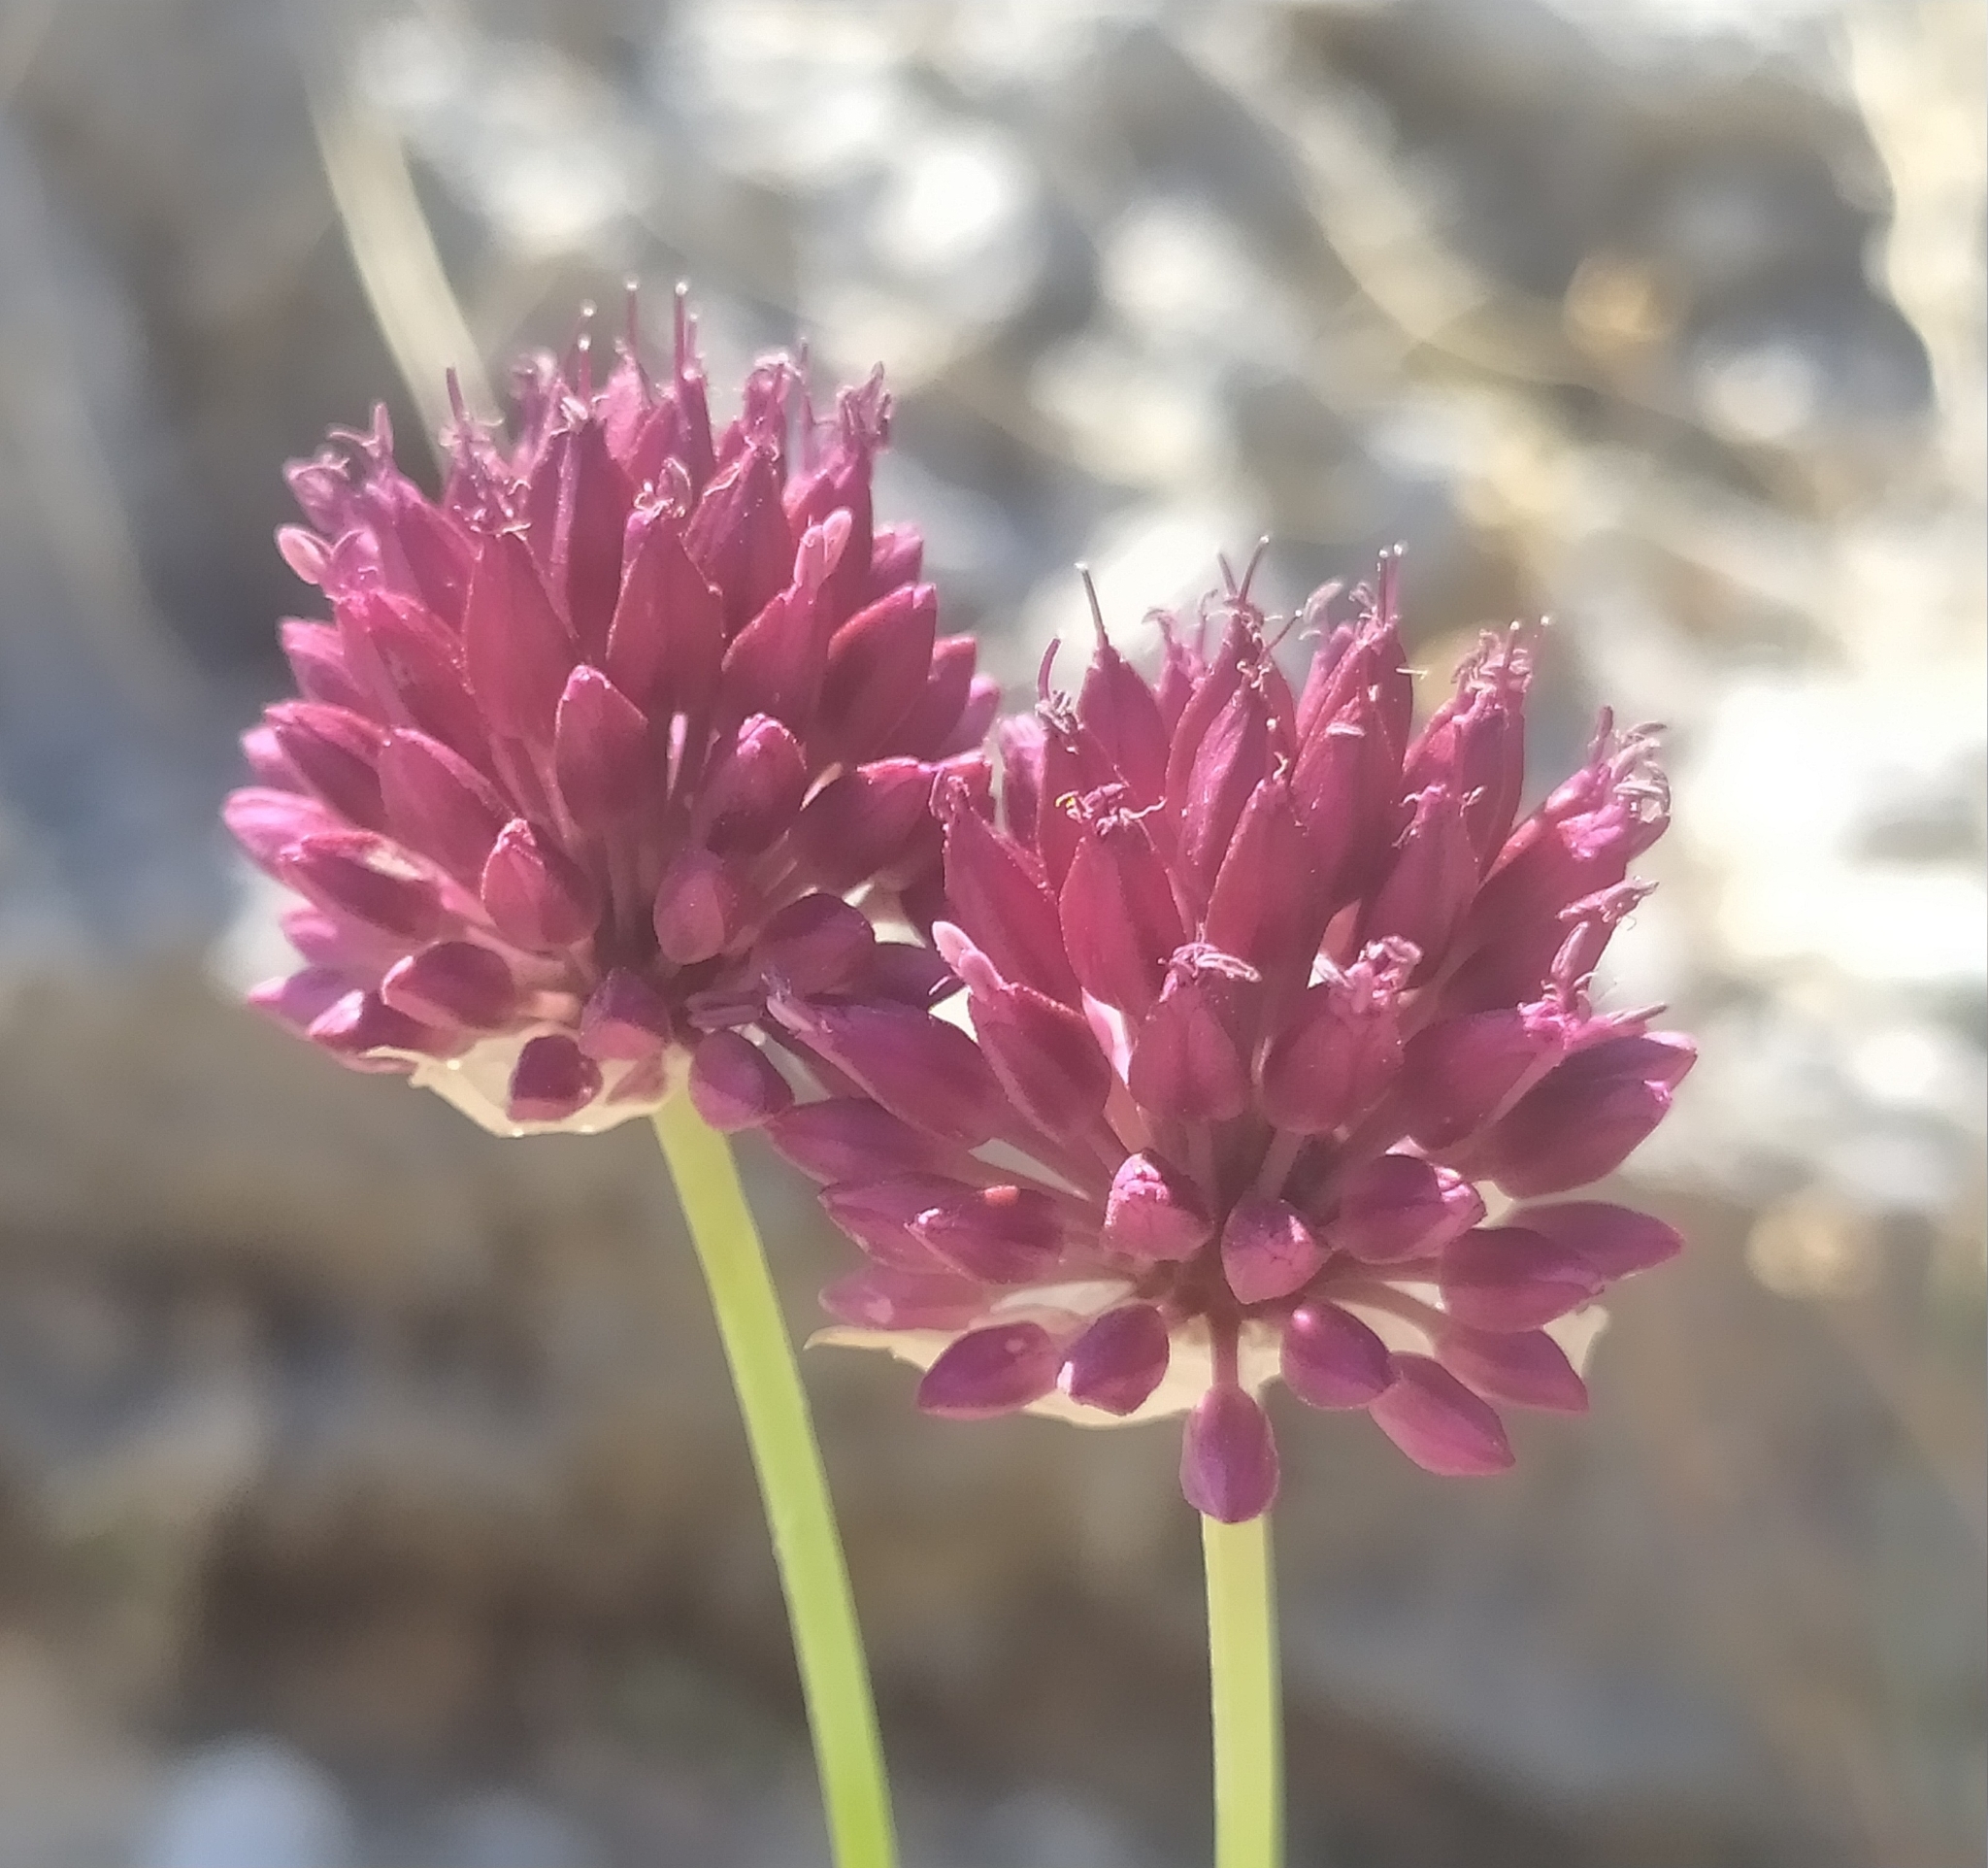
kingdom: Plantae
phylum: Tracheophyta
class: Liliopsida
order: Asparagales
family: Amaryllidaceae
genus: Allium
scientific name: Allium sphaerocephalon
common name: Round-headed leek
